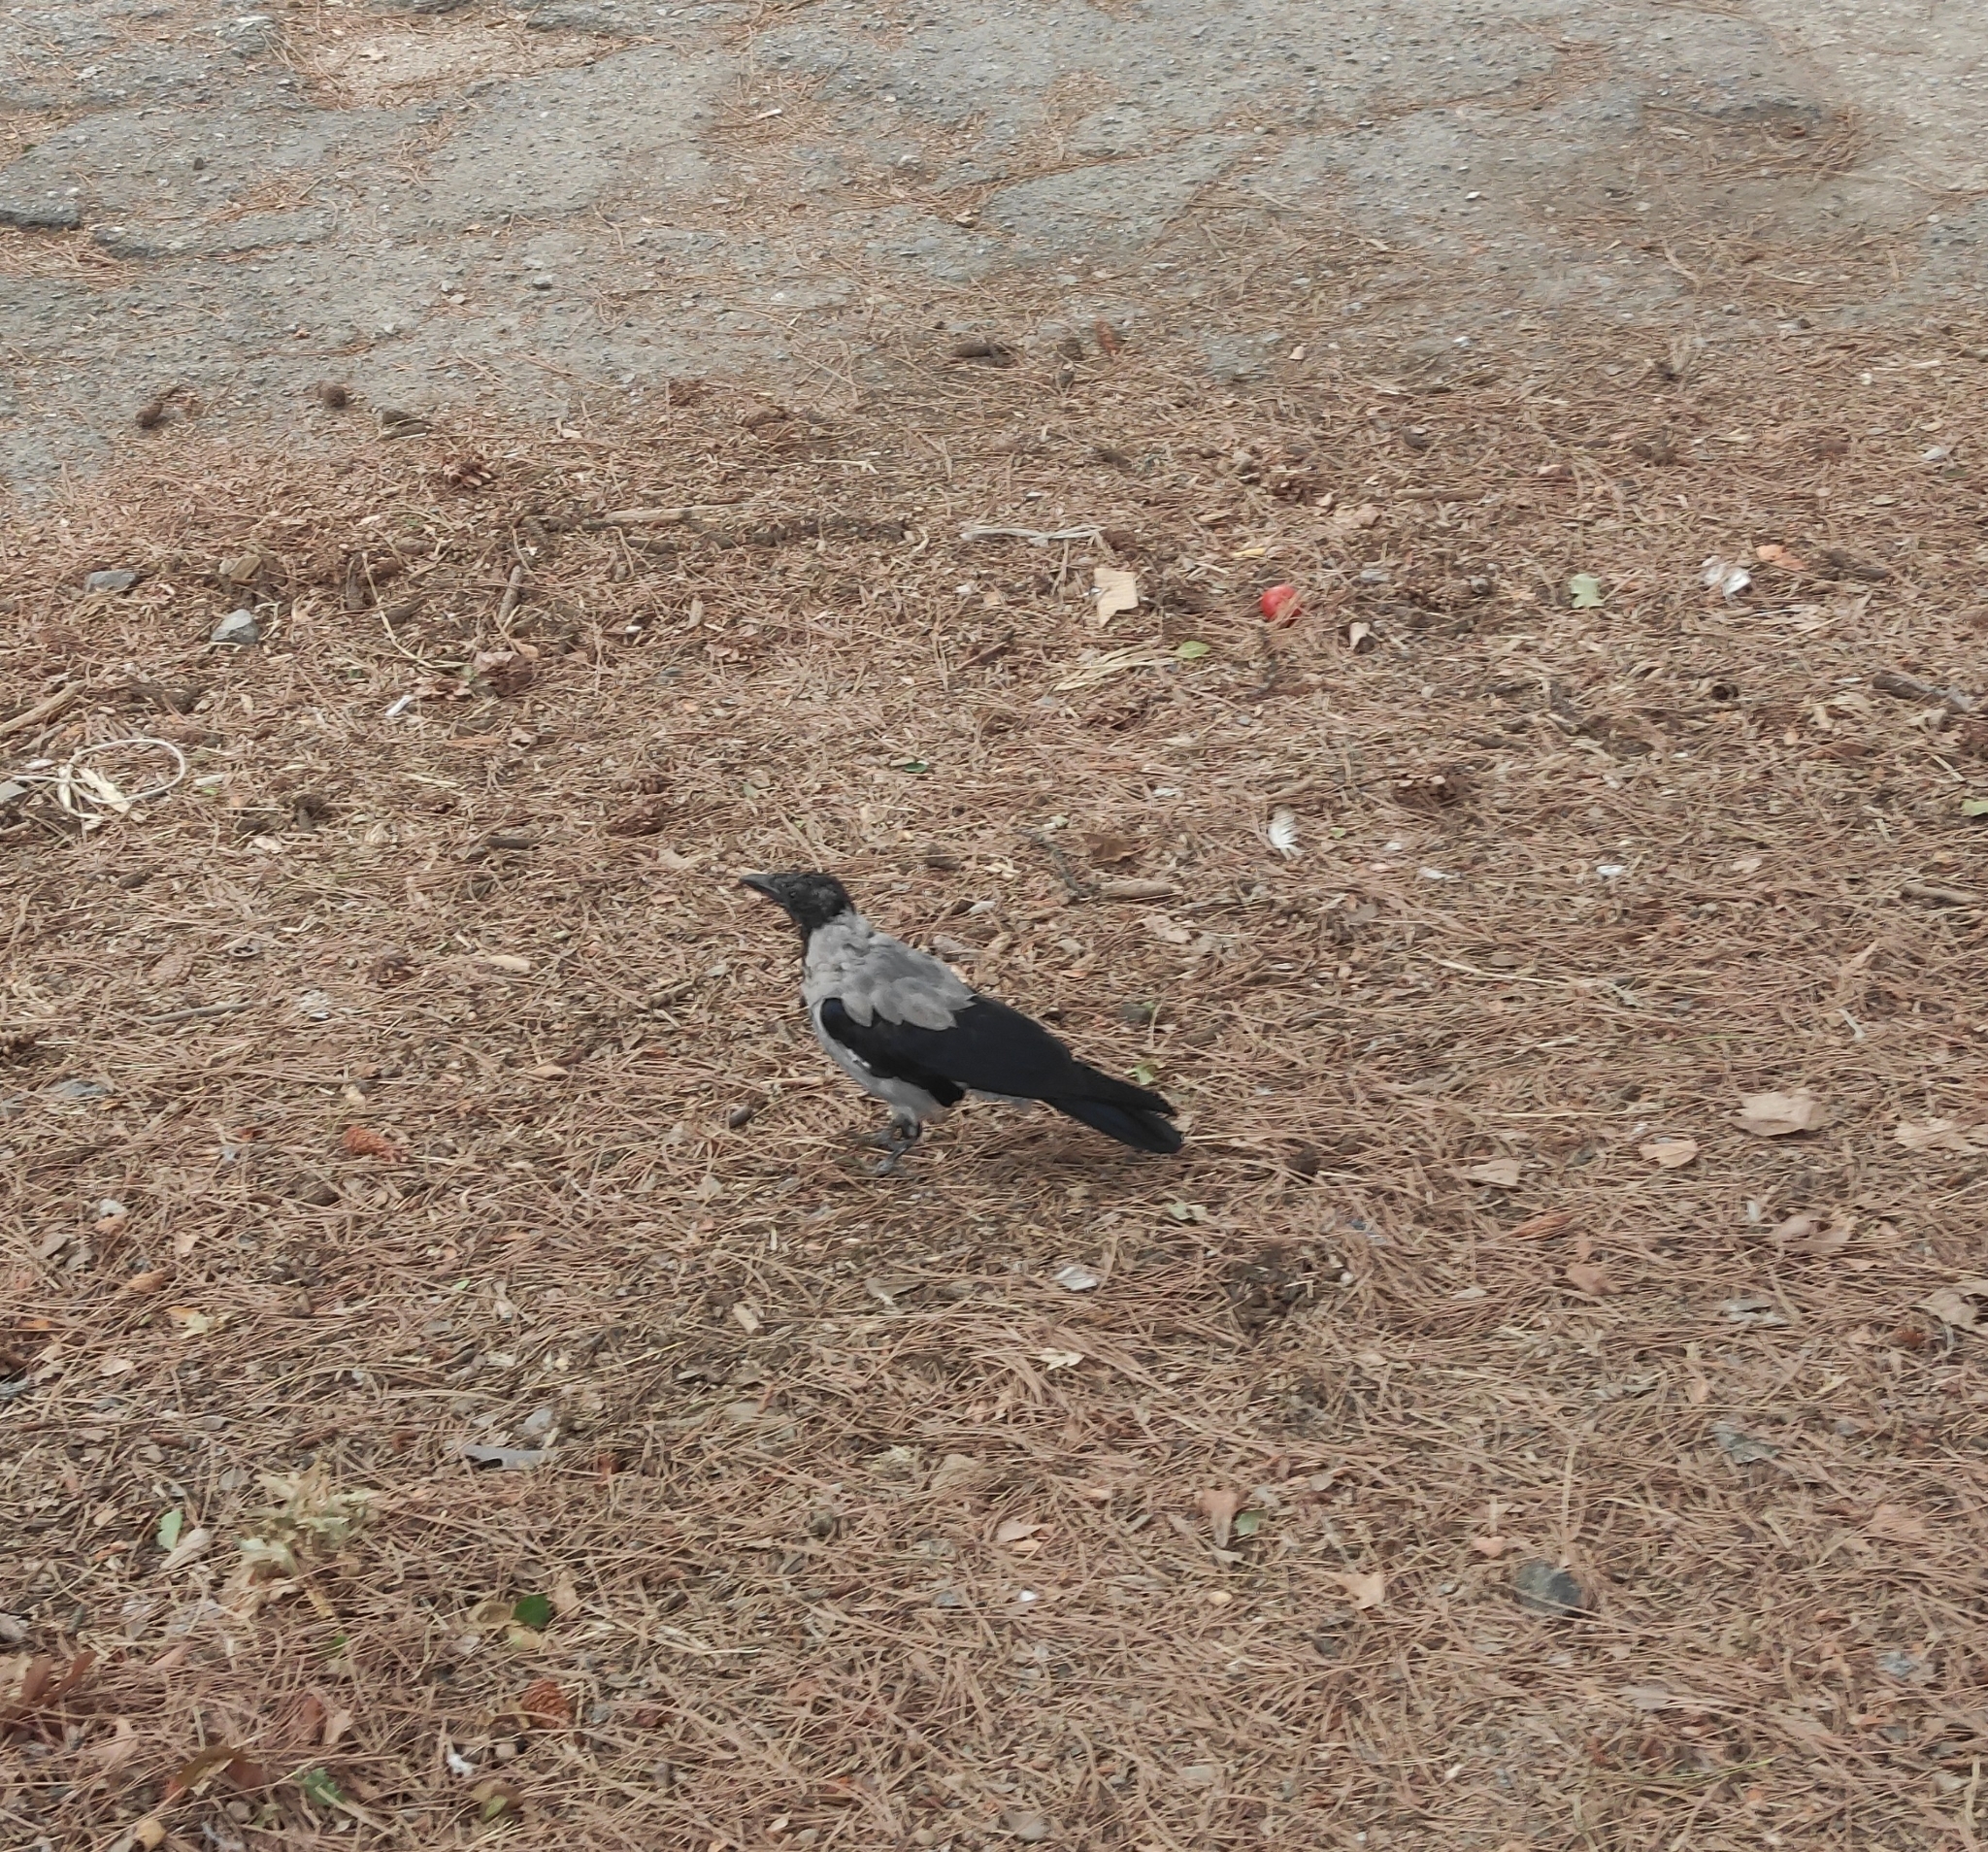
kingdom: Animalia
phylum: Chordata
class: Aves
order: Passeriformes
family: Corvidae
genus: Corvus
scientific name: Corvus cornix
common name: Hooded crow
